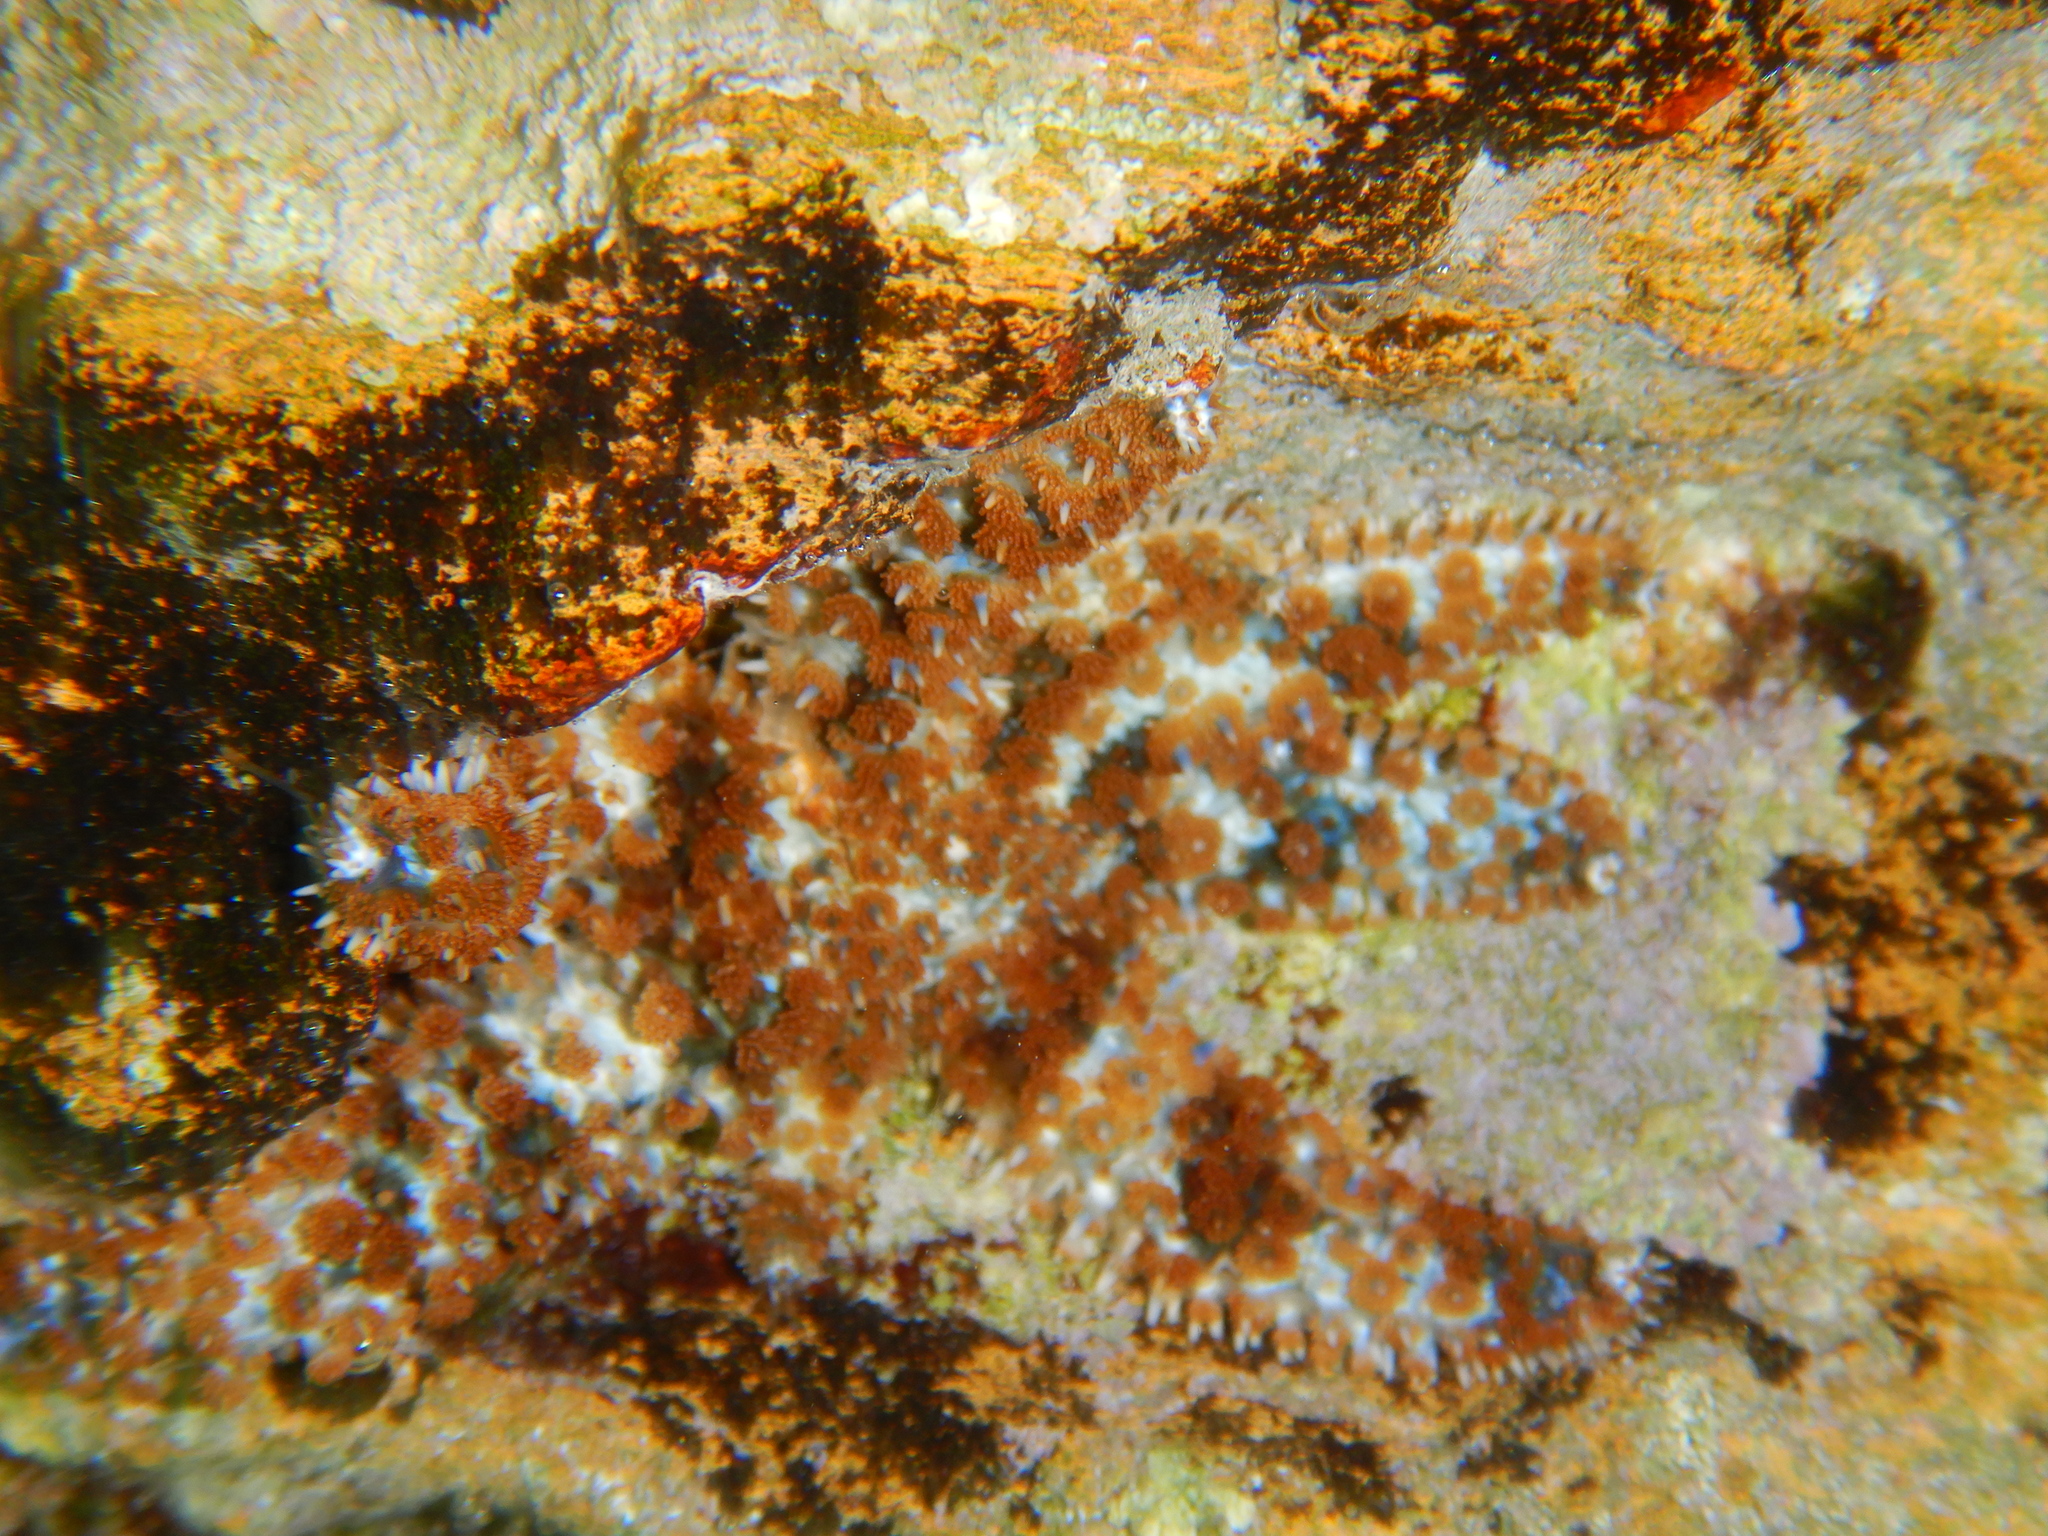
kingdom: Animalia
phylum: Echinodermata
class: Asteroidea
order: Forcipulatida
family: Asteriidae
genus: Coscinasterias
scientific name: Coscinasterias tenuispina
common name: Blue spiny starfish
